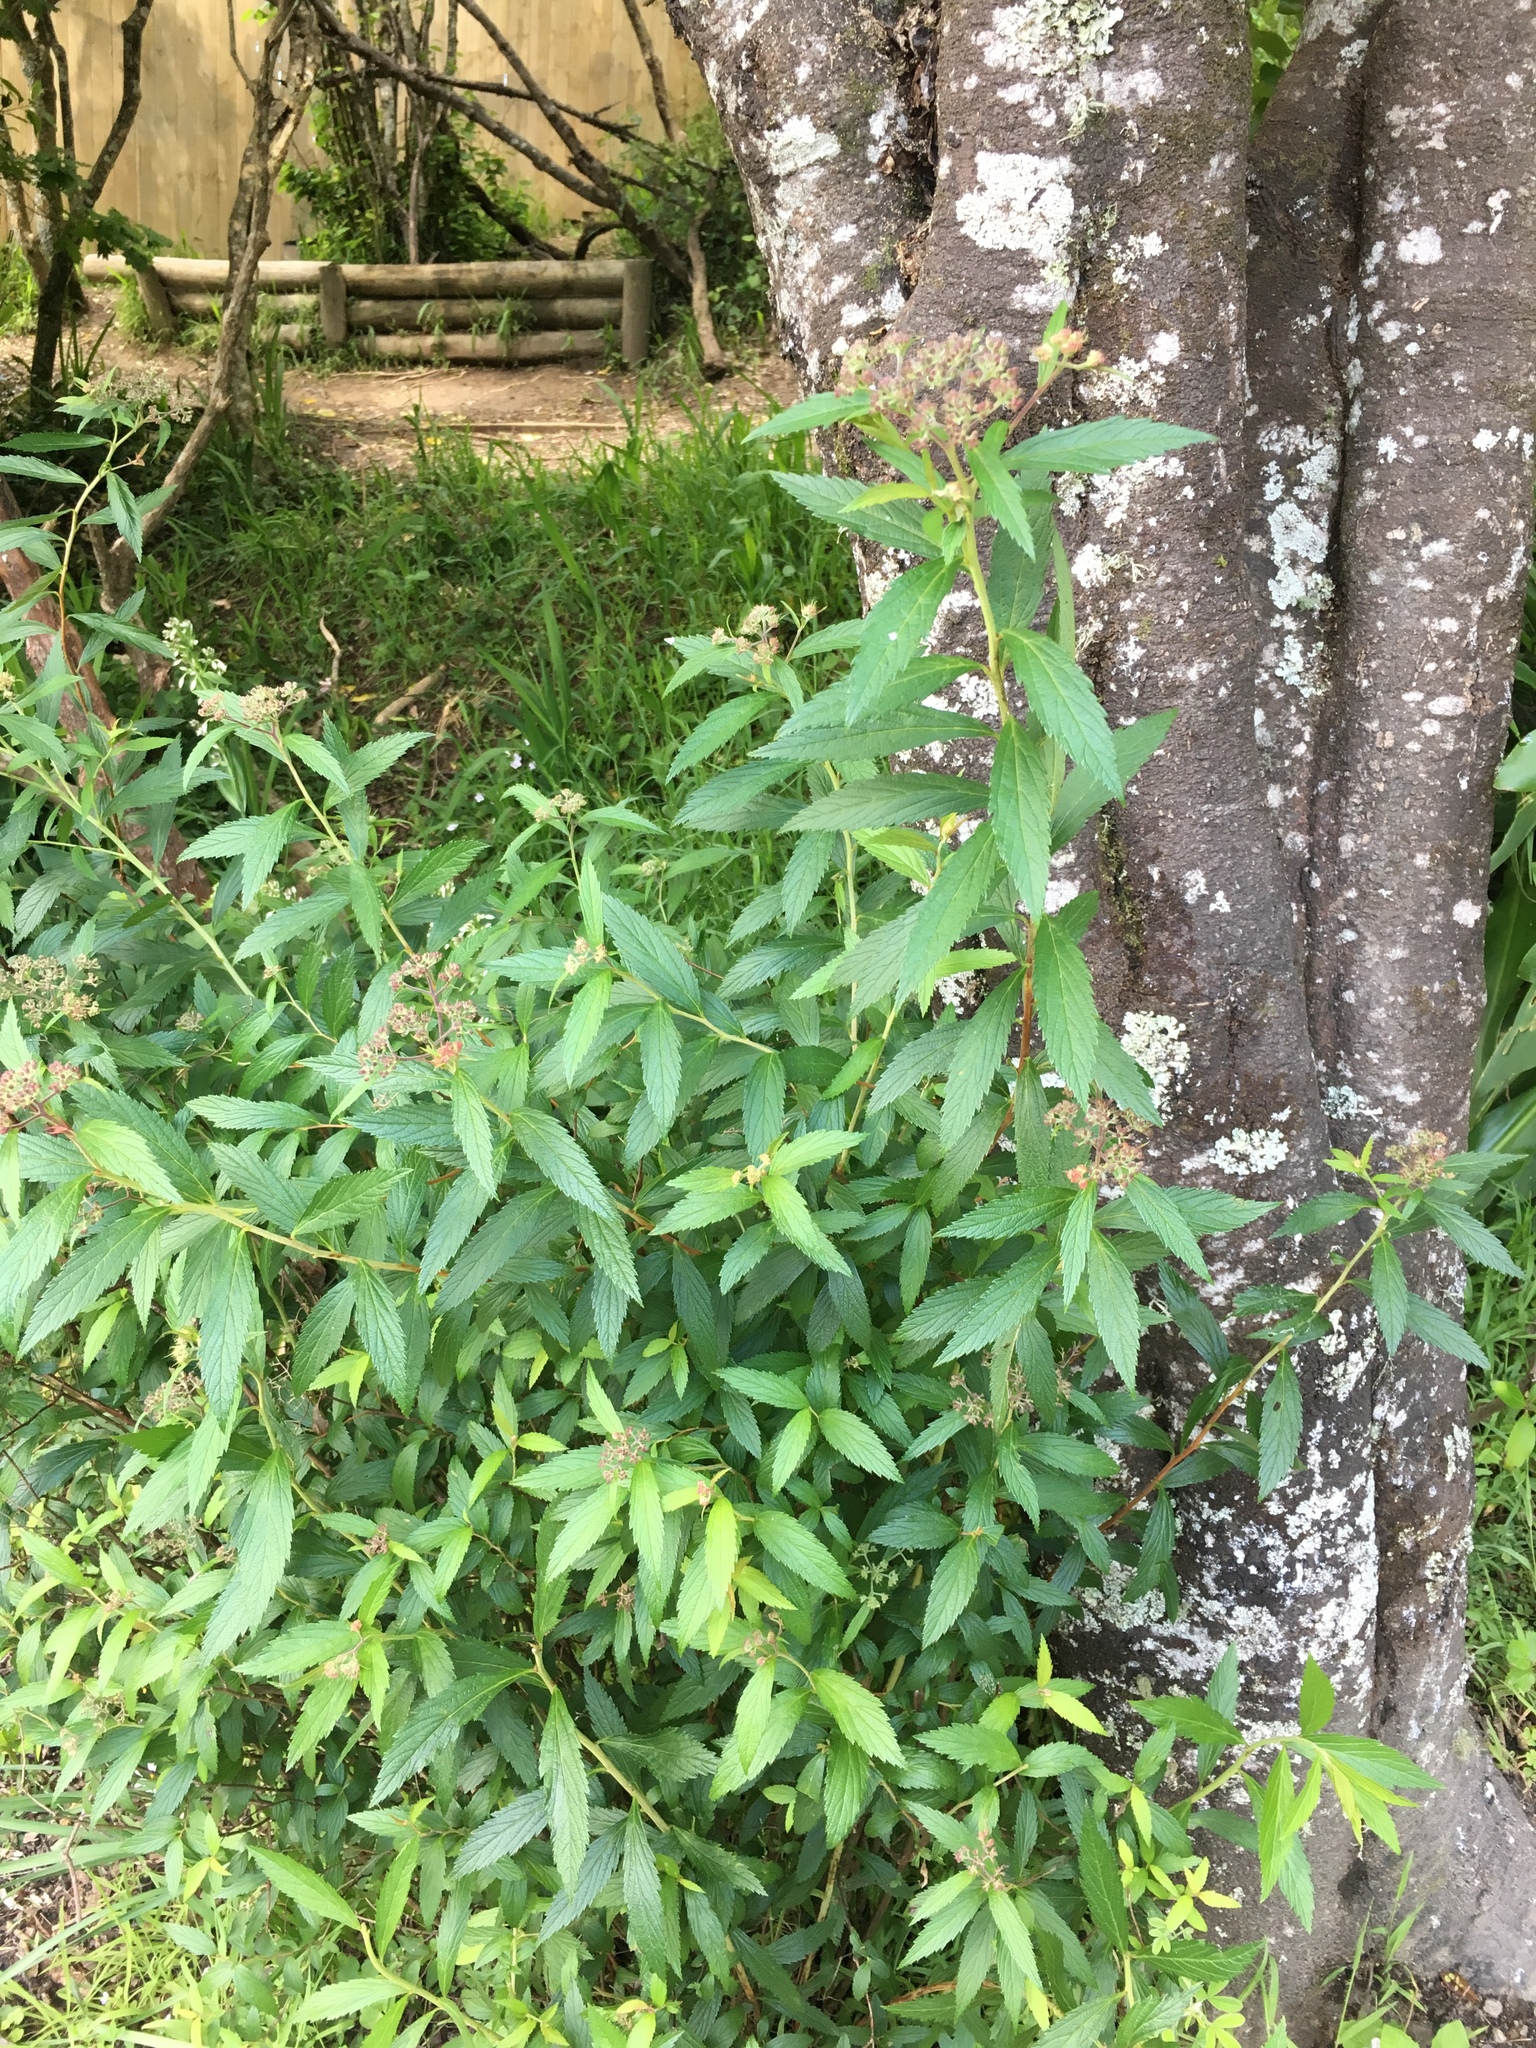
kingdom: Plantae
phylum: Tracheophyta
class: Magnoliopsida
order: Rosales
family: Rosaceae
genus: Spiraea
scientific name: Spiraea japonica
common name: Japanese spiraea
